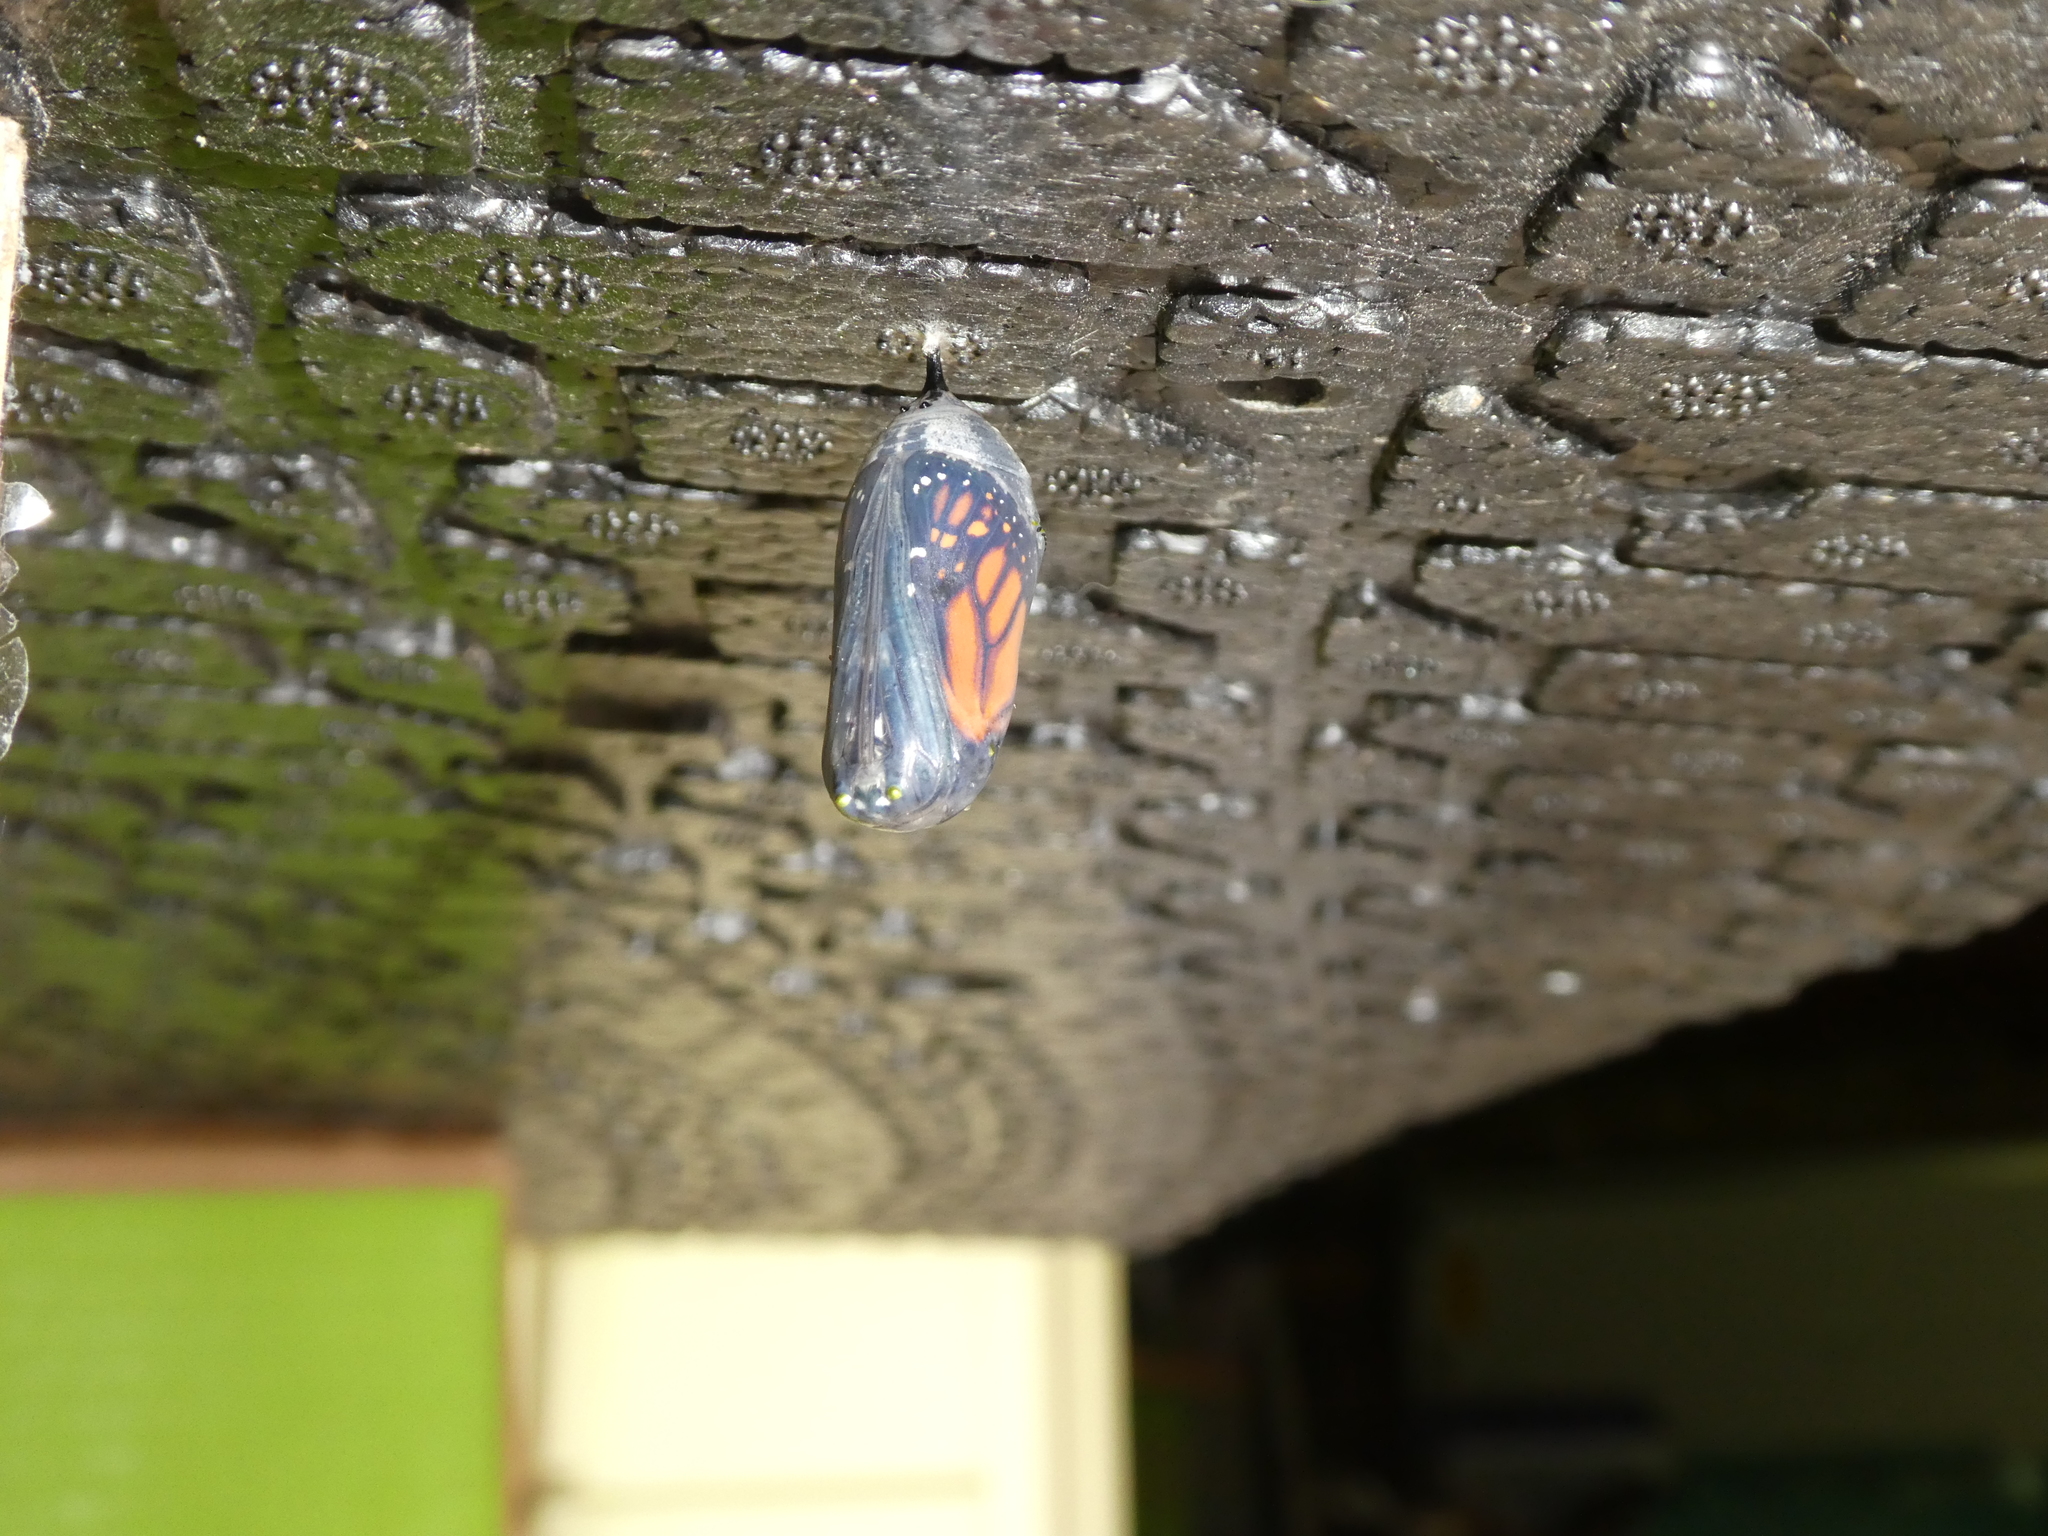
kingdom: Animalia
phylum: Arthropoda
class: Insecta
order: Lepidoptera
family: Nymphalidae
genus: Danaus
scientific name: Danaus plexippus
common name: Monarch
